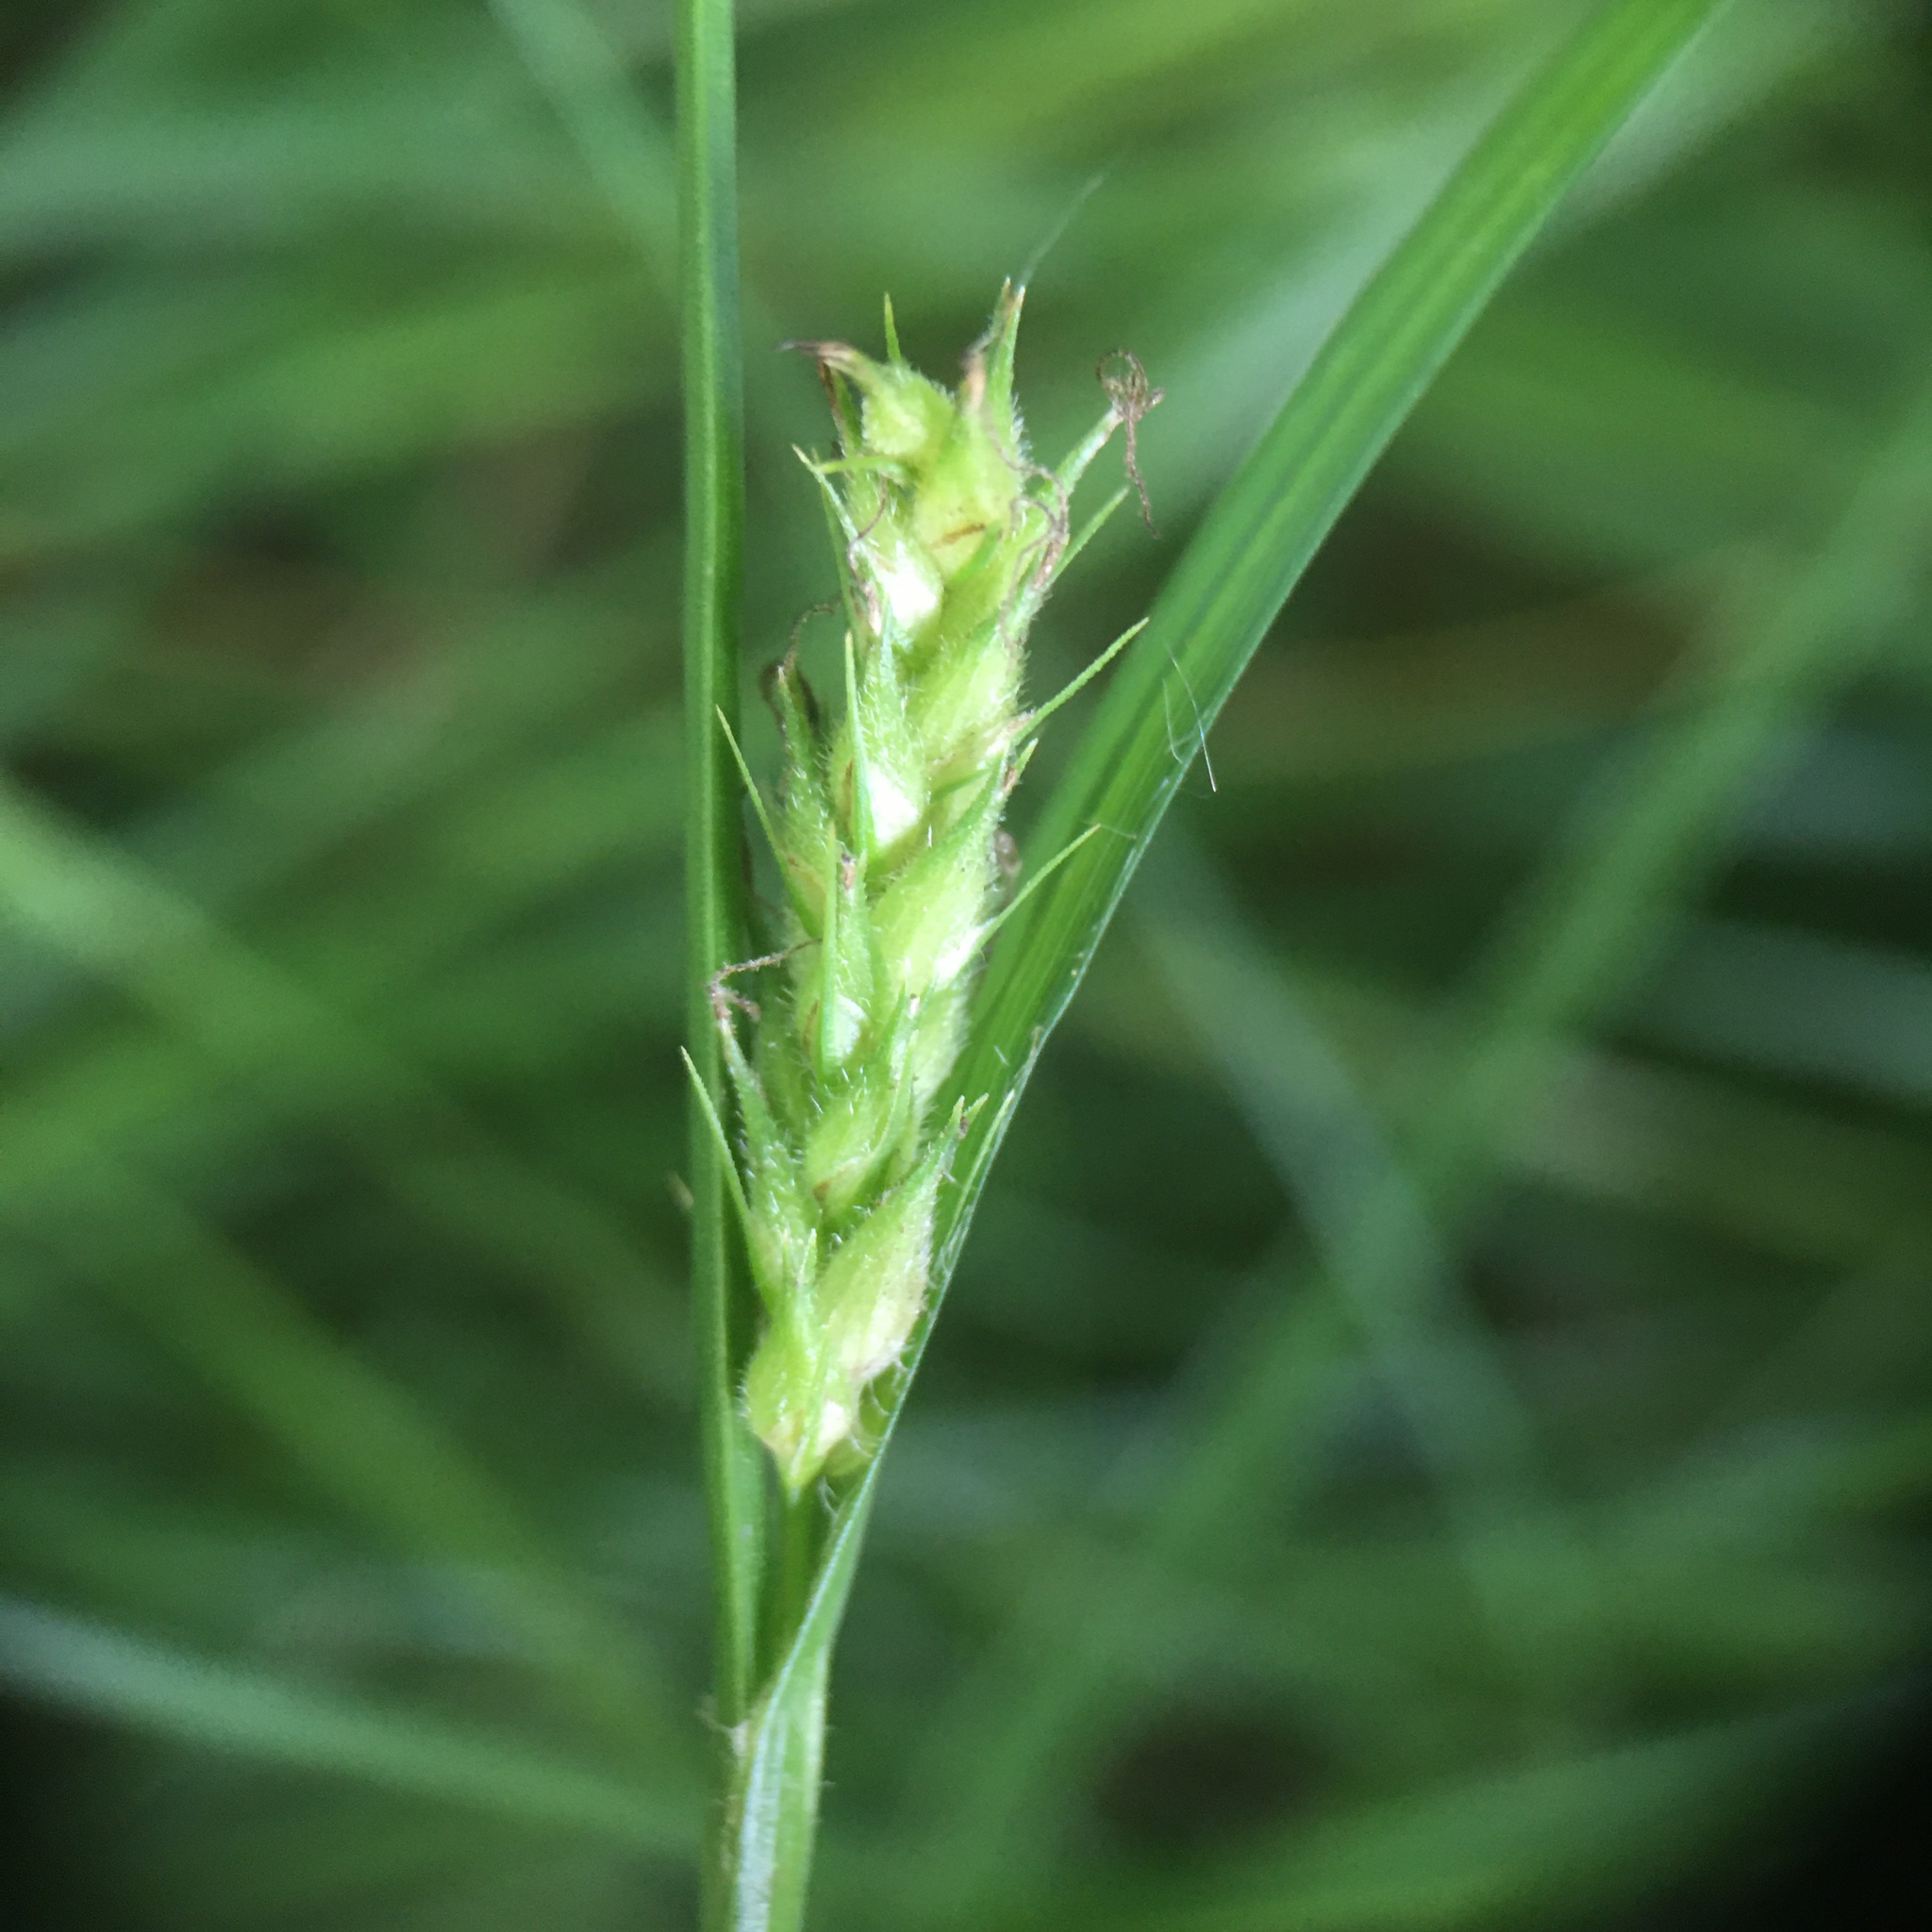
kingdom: Plantae
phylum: Tracheophyta
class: Liliopsida
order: Poales
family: Cyperaceae
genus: Carex
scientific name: Carex hirta
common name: Hairy sedge
